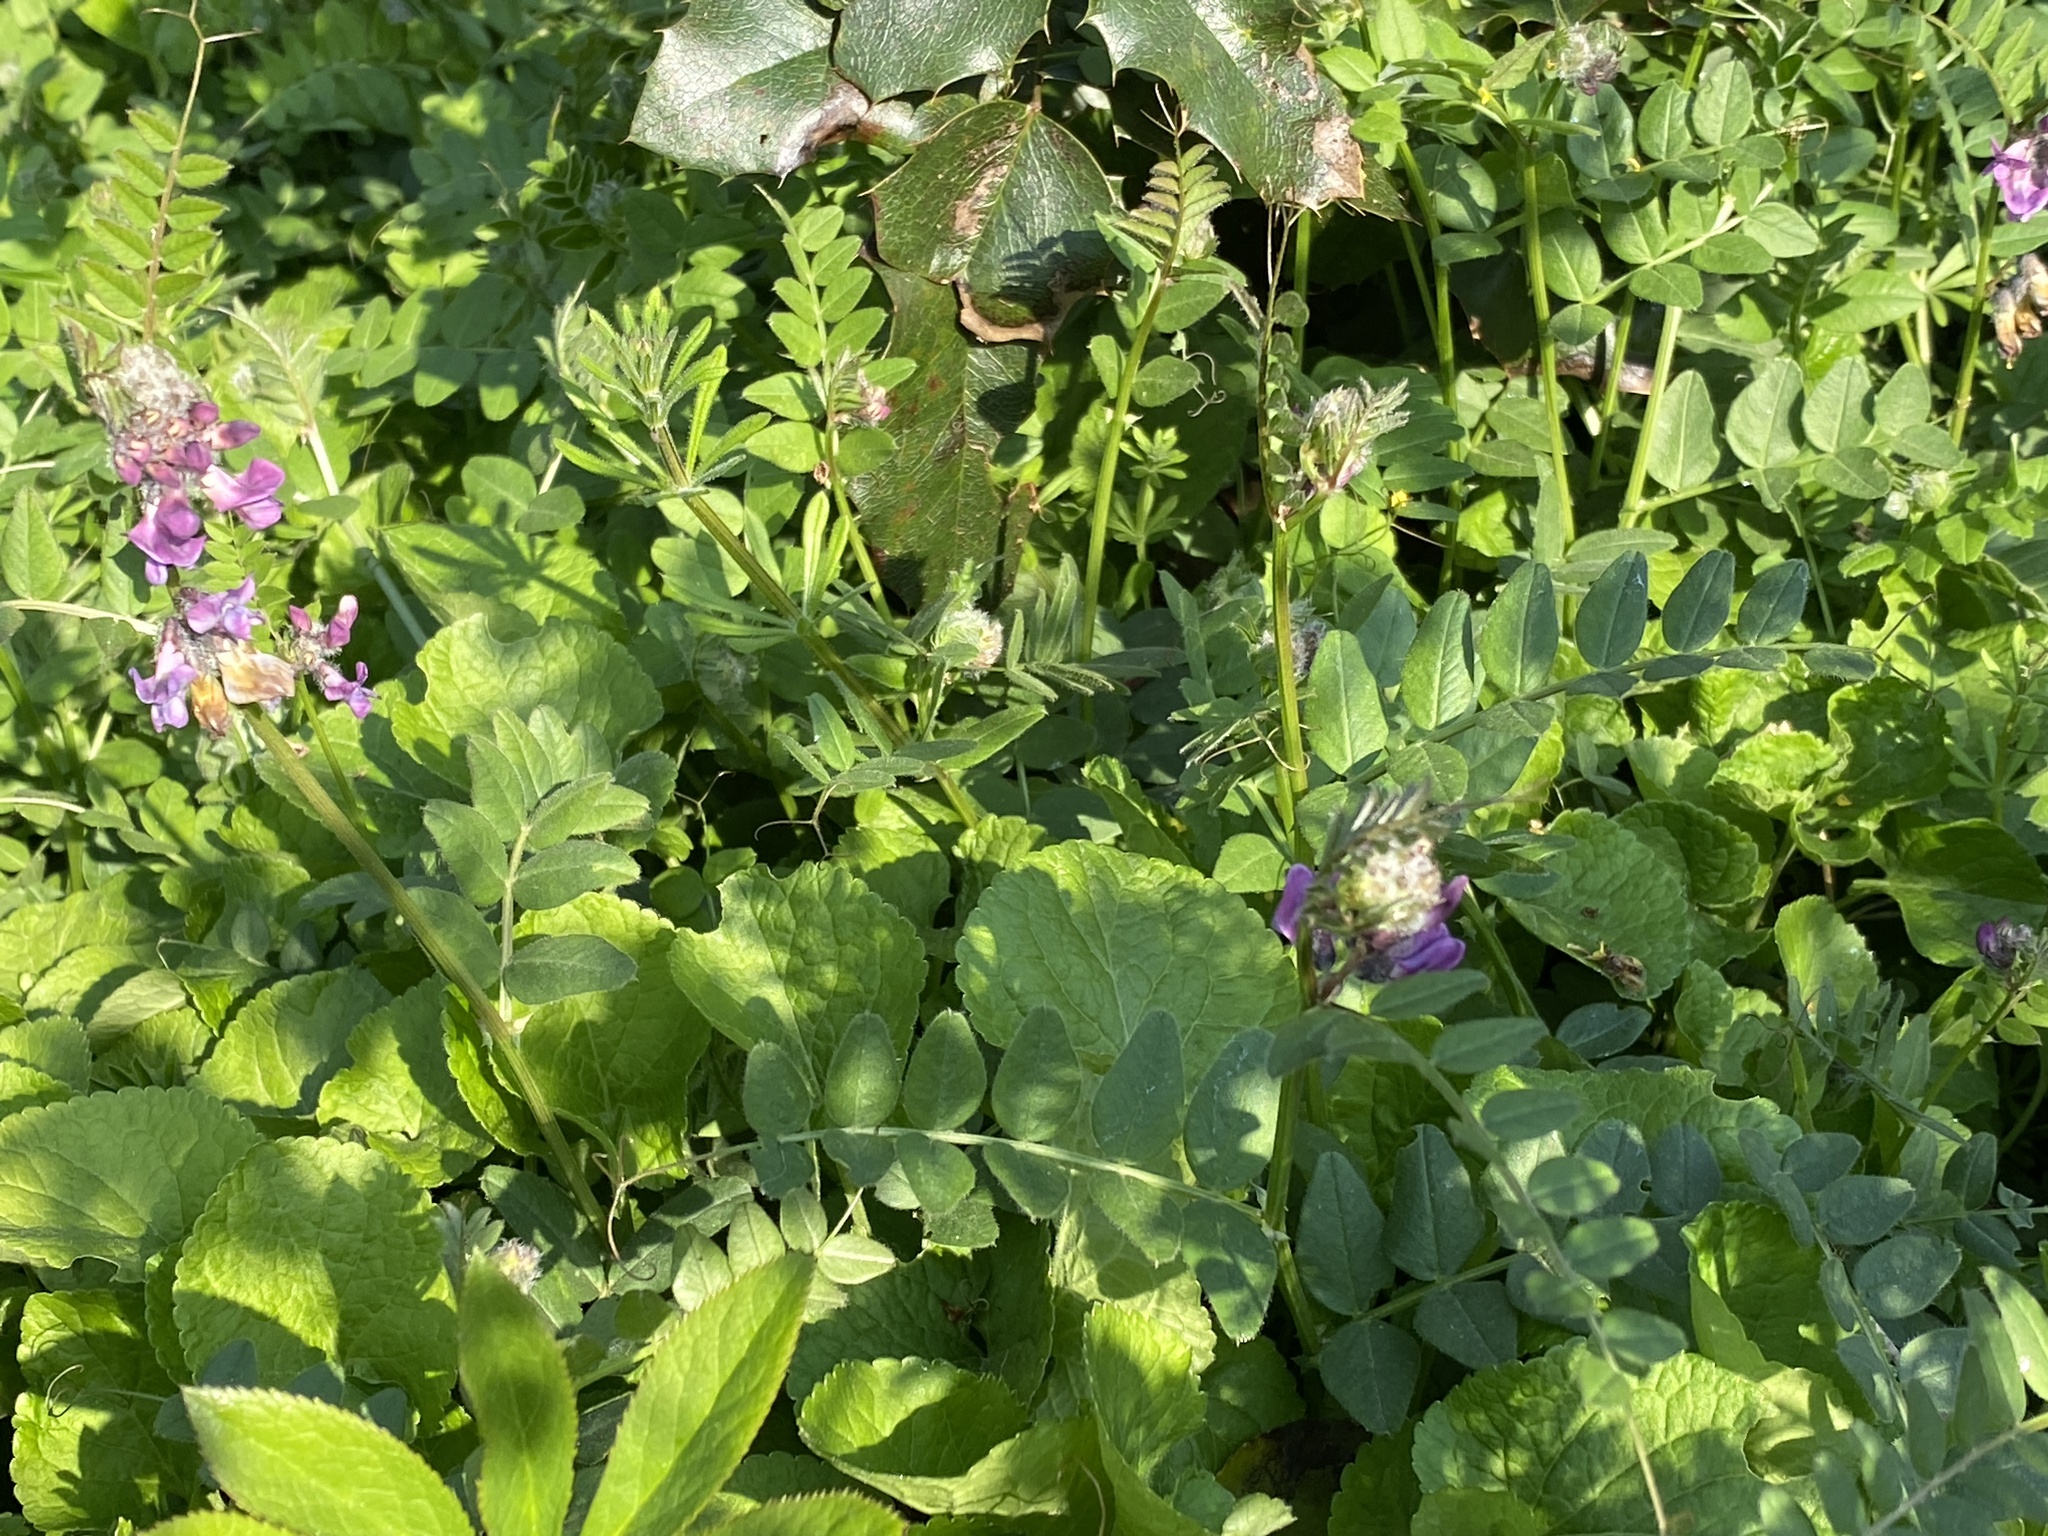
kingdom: Plantae
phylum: Tracheophyta
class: Magnoliopsida
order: Fabales
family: Fabaceae
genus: Vicia
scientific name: Vicia sepium
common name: Bush vetch
